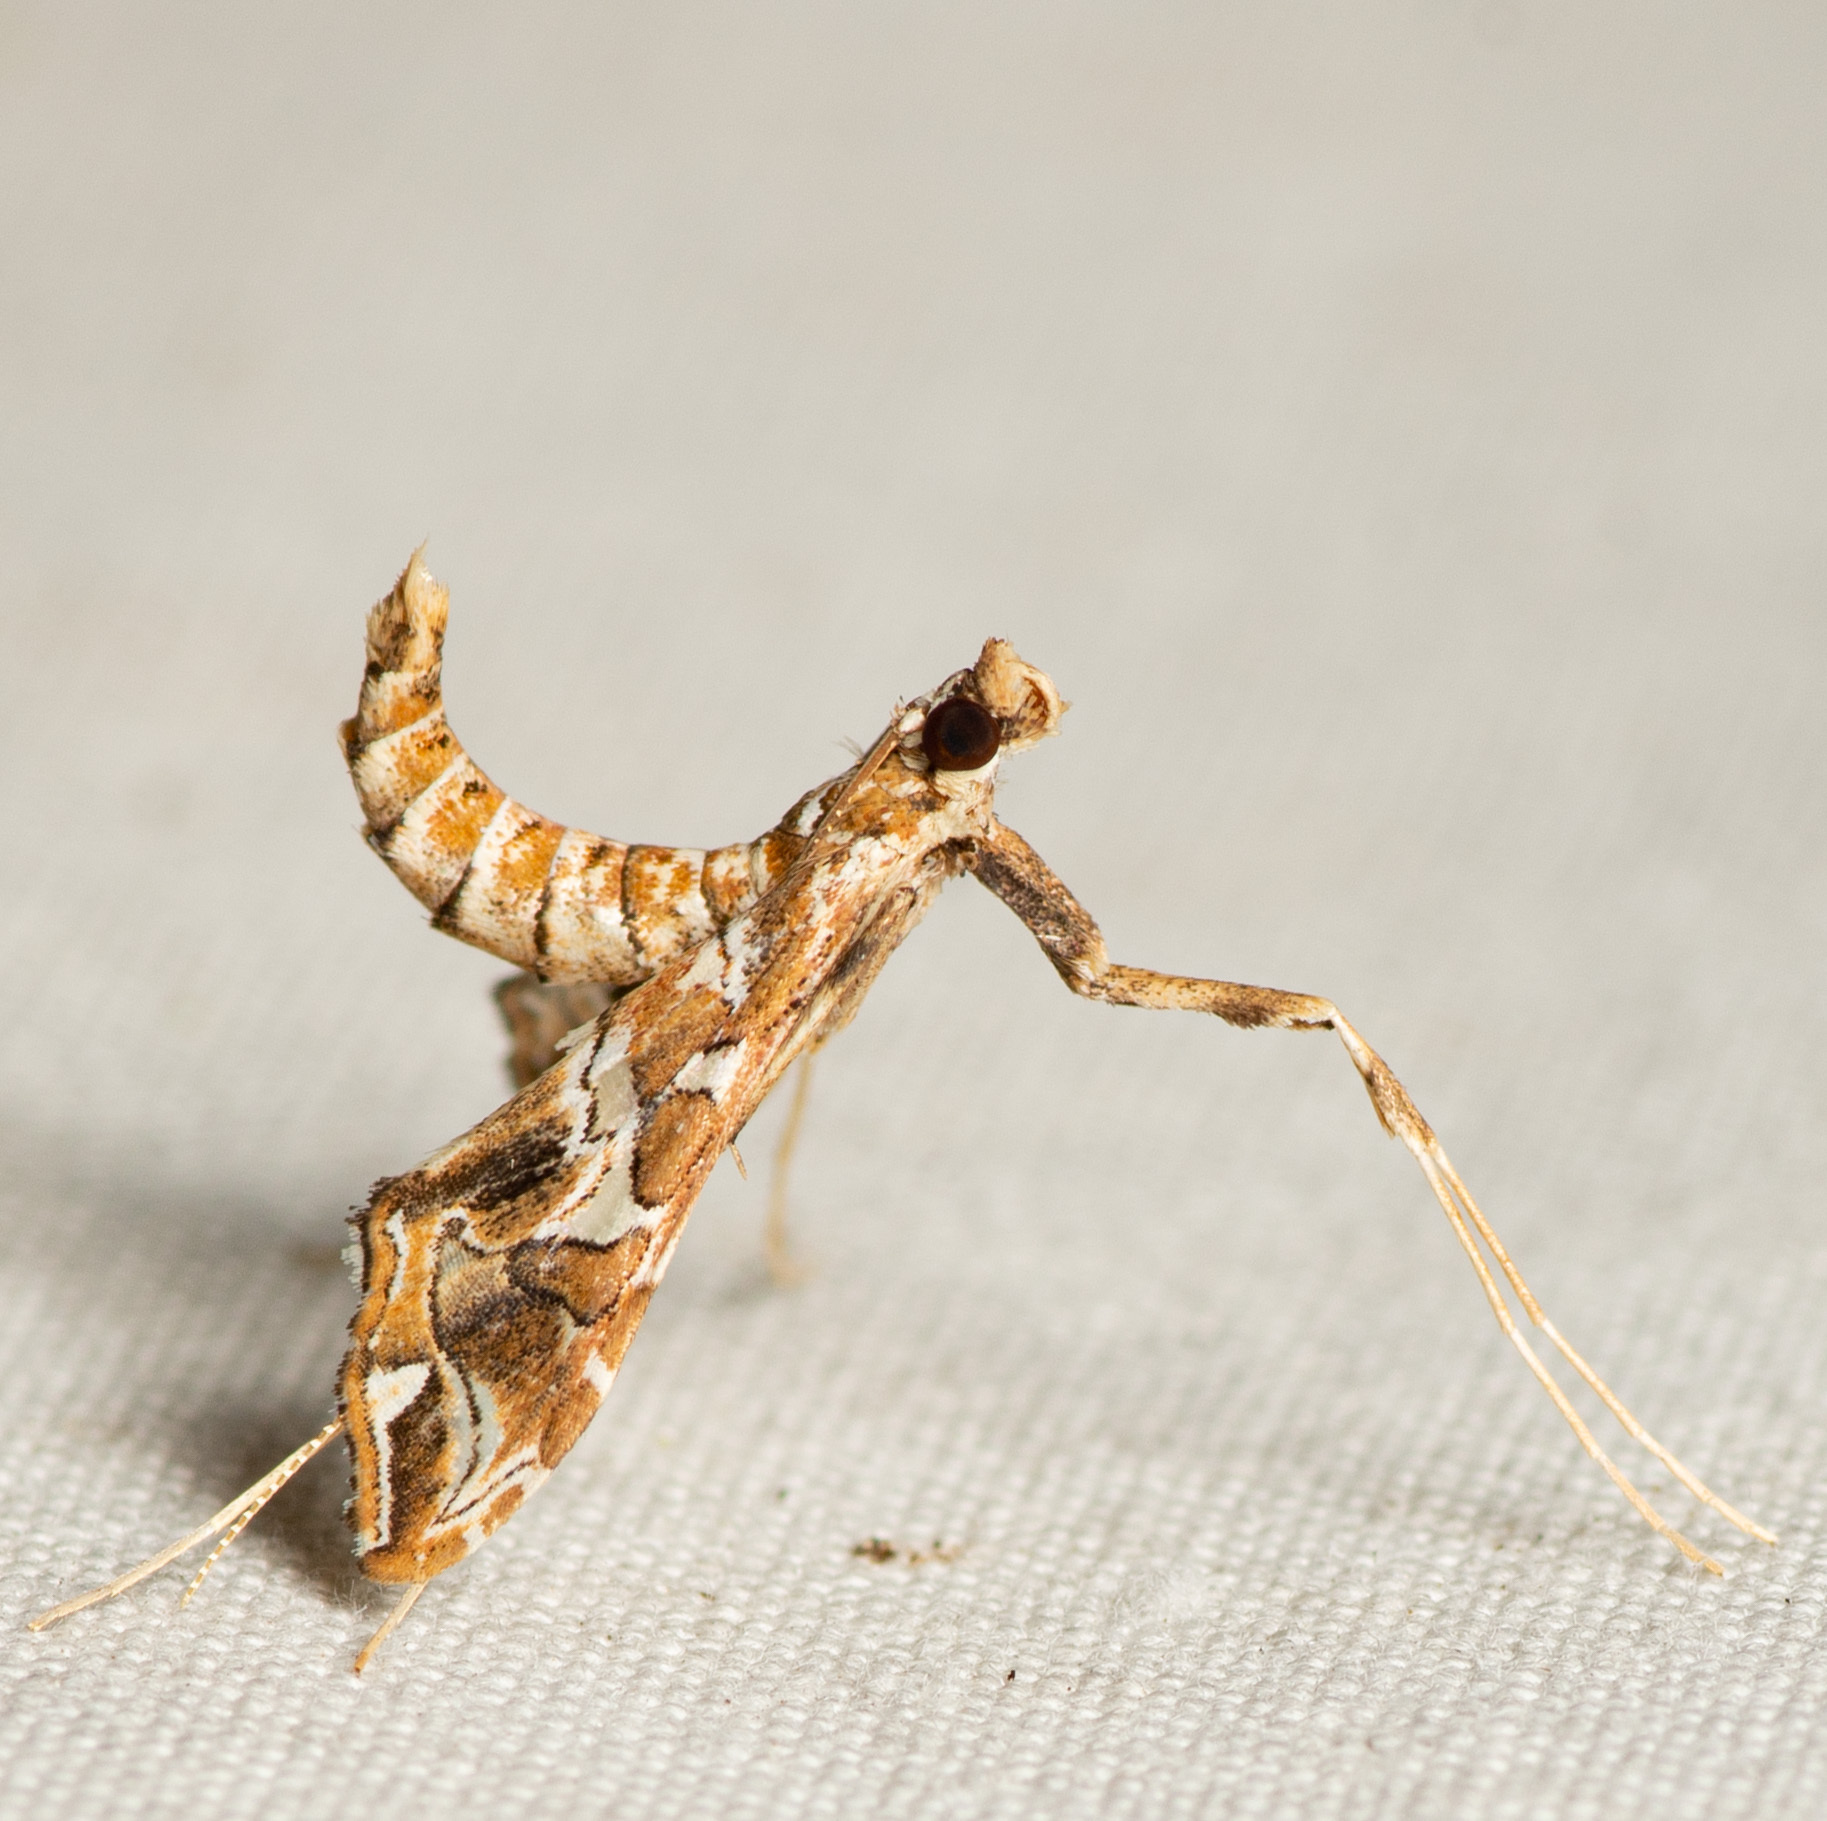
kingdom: Animalia
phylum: Arthropoda
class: Insecta
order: Lepidoptera
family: Crambidae
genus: Lineodes
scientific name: Lineodes vulnifica
